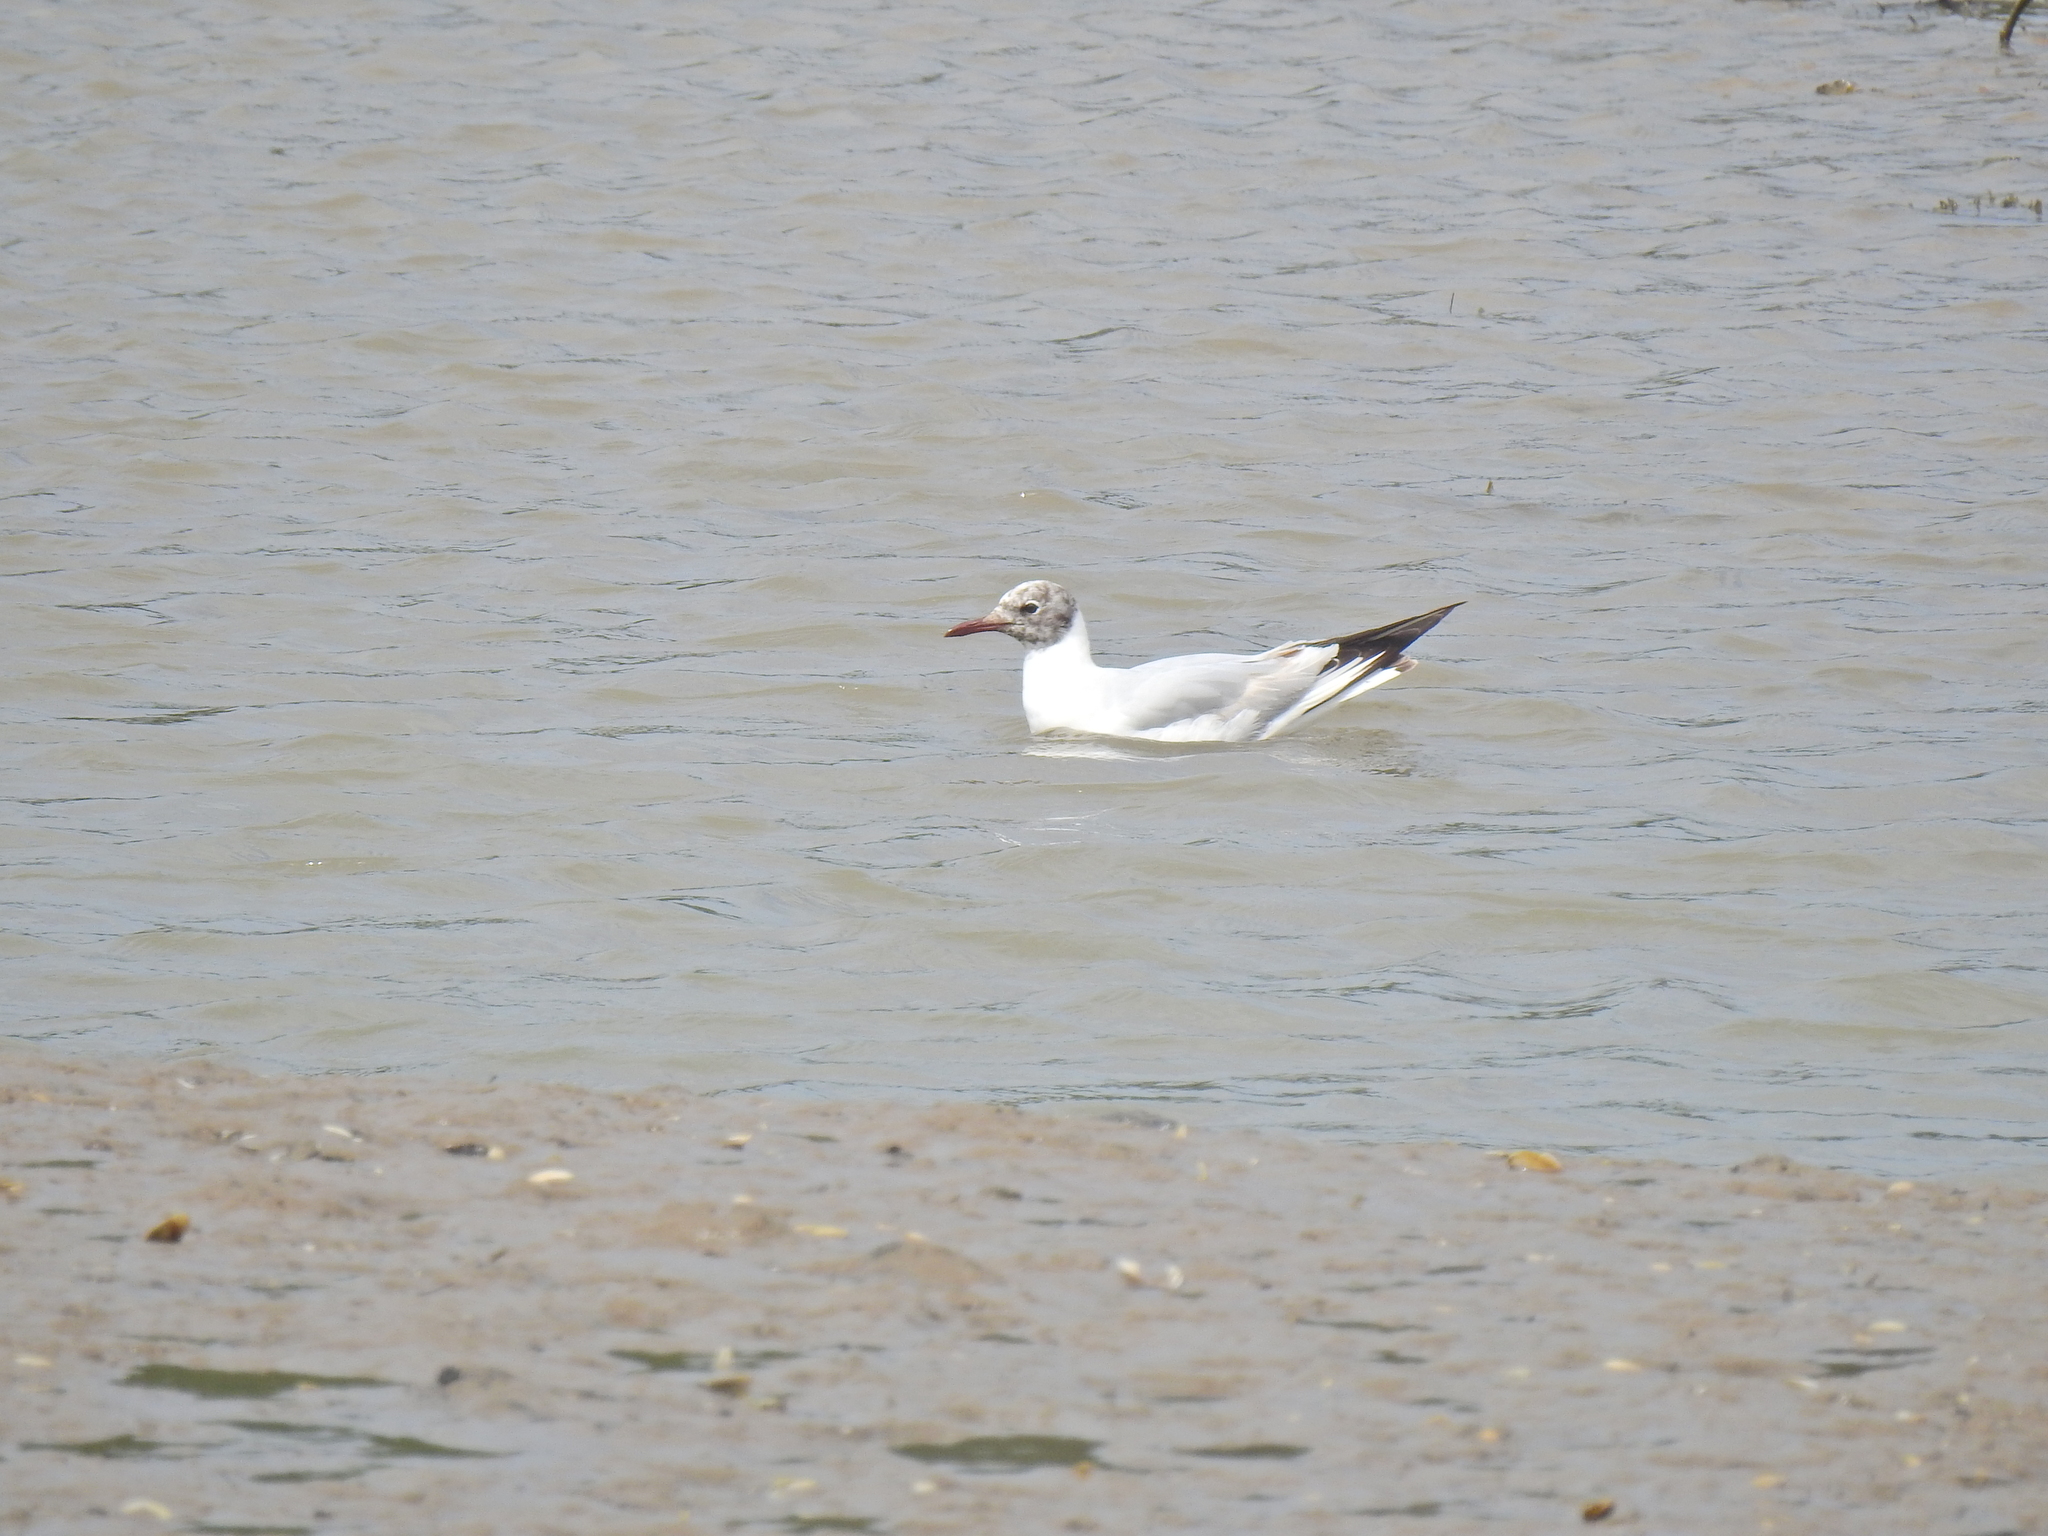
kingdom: Animalia
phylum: Chordata
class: Aves
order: Charadriiformes
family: Laridae
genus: Chroicocephalus
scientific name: Chroicocephalus ridibundus
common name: Black-headed gull
